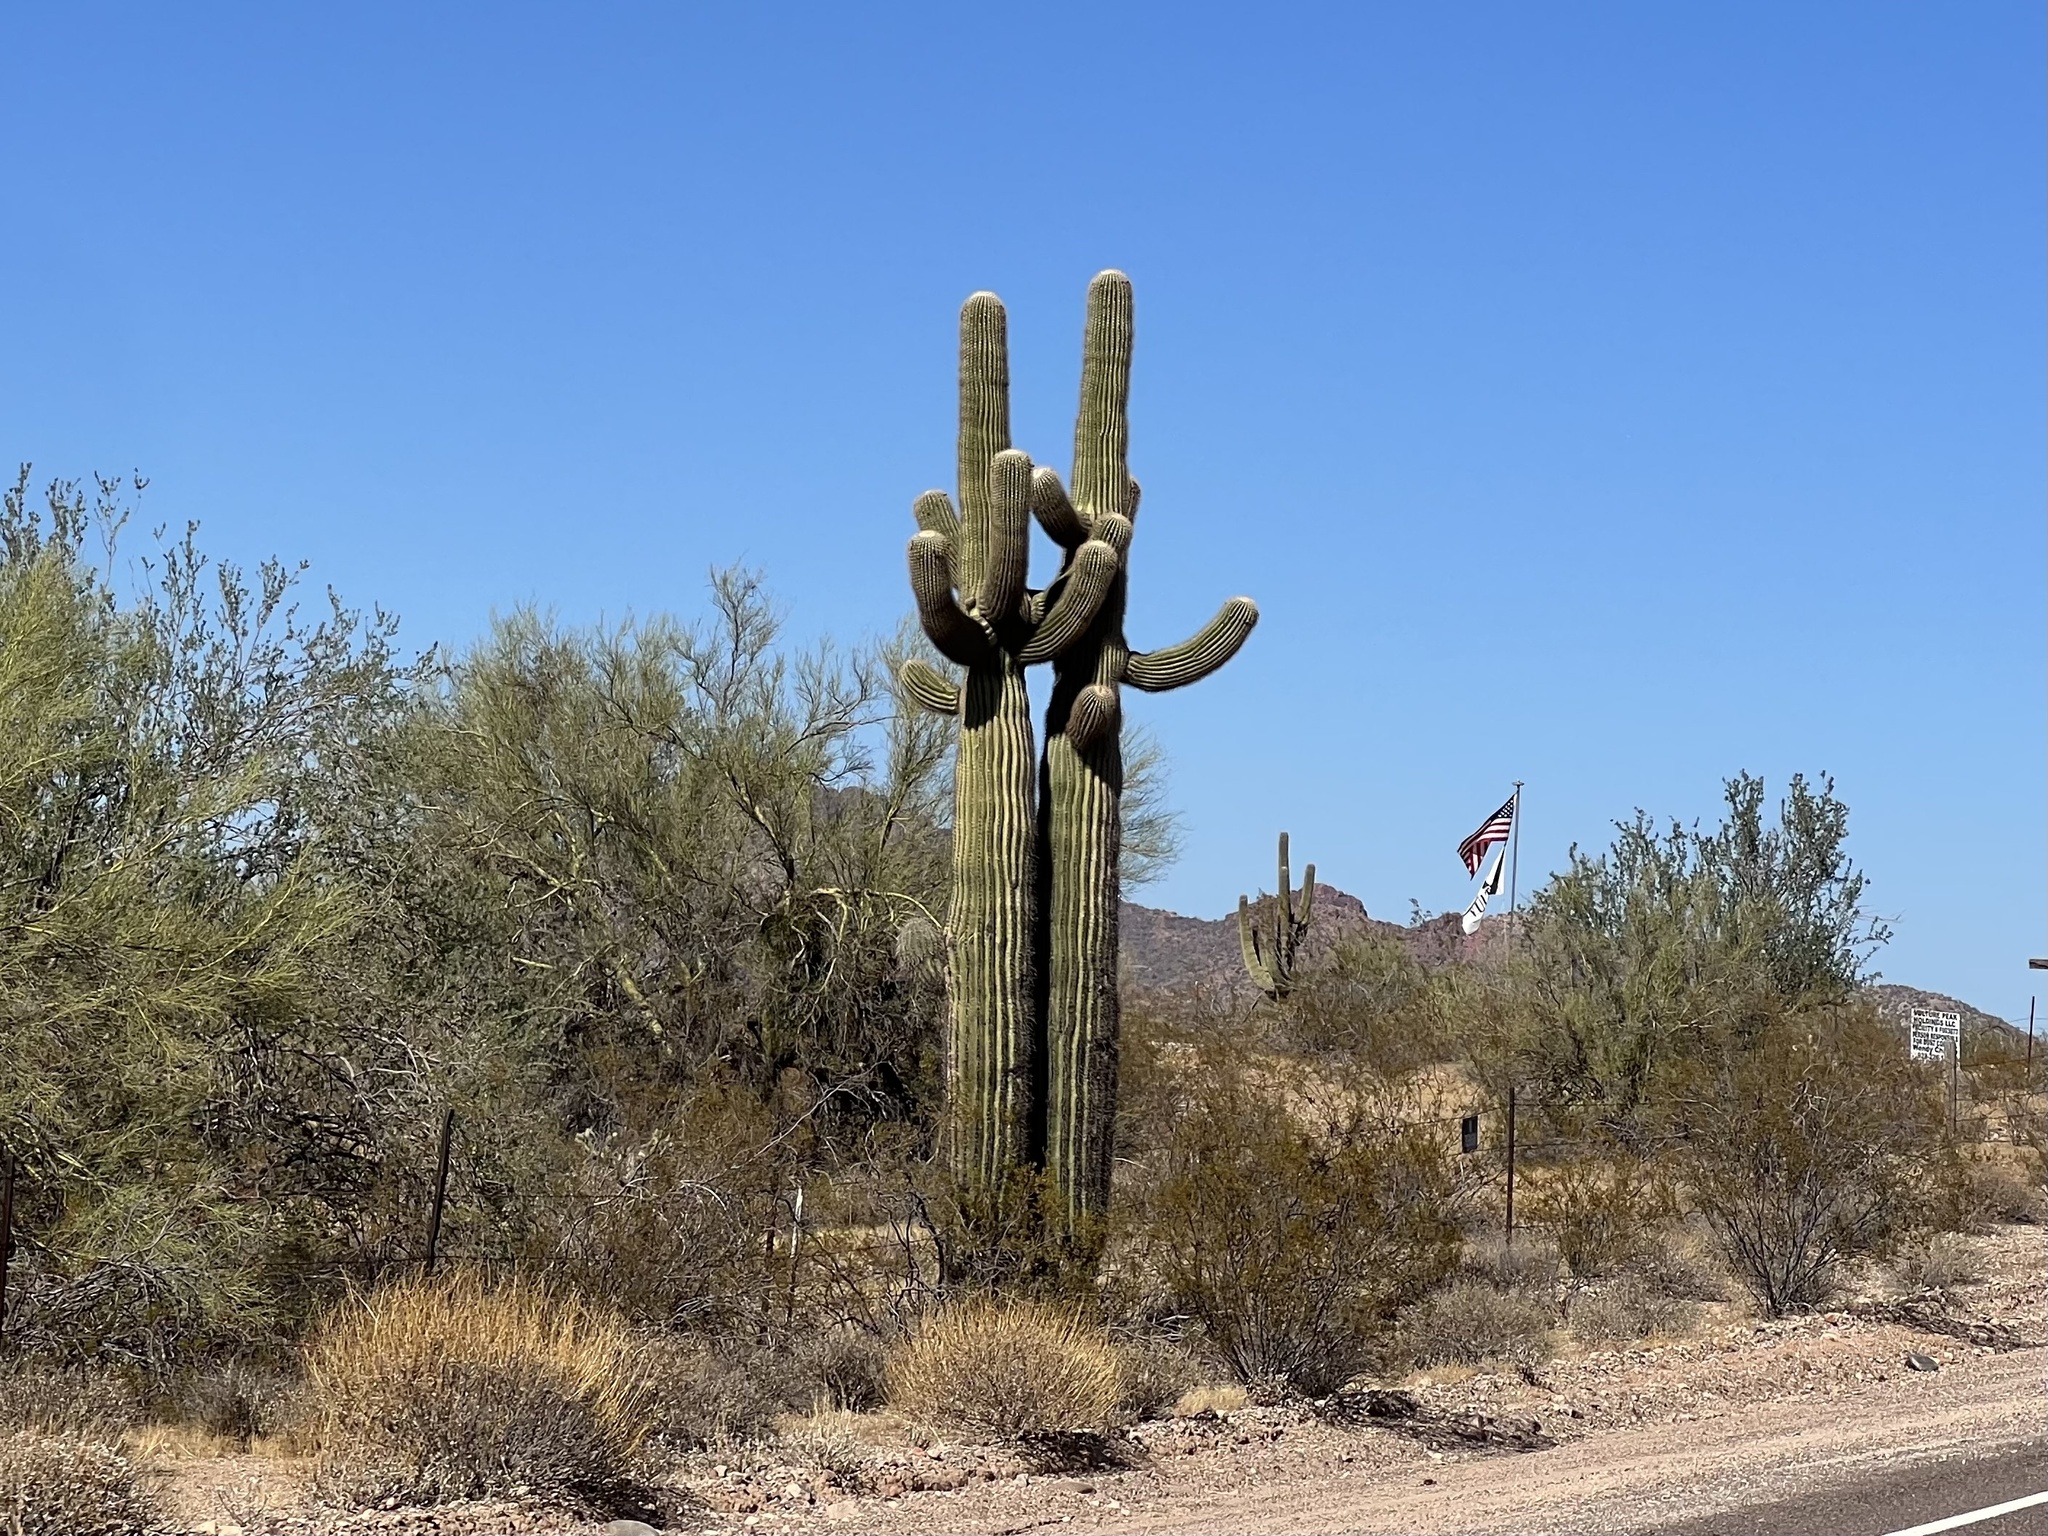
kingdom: Plantae
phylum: Tracheophyta
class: Magnoliopsida
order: Caryophyllales
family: Cactaceae
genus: Carnegiea
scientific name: Carnegiea gigantea
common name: Saguaro
